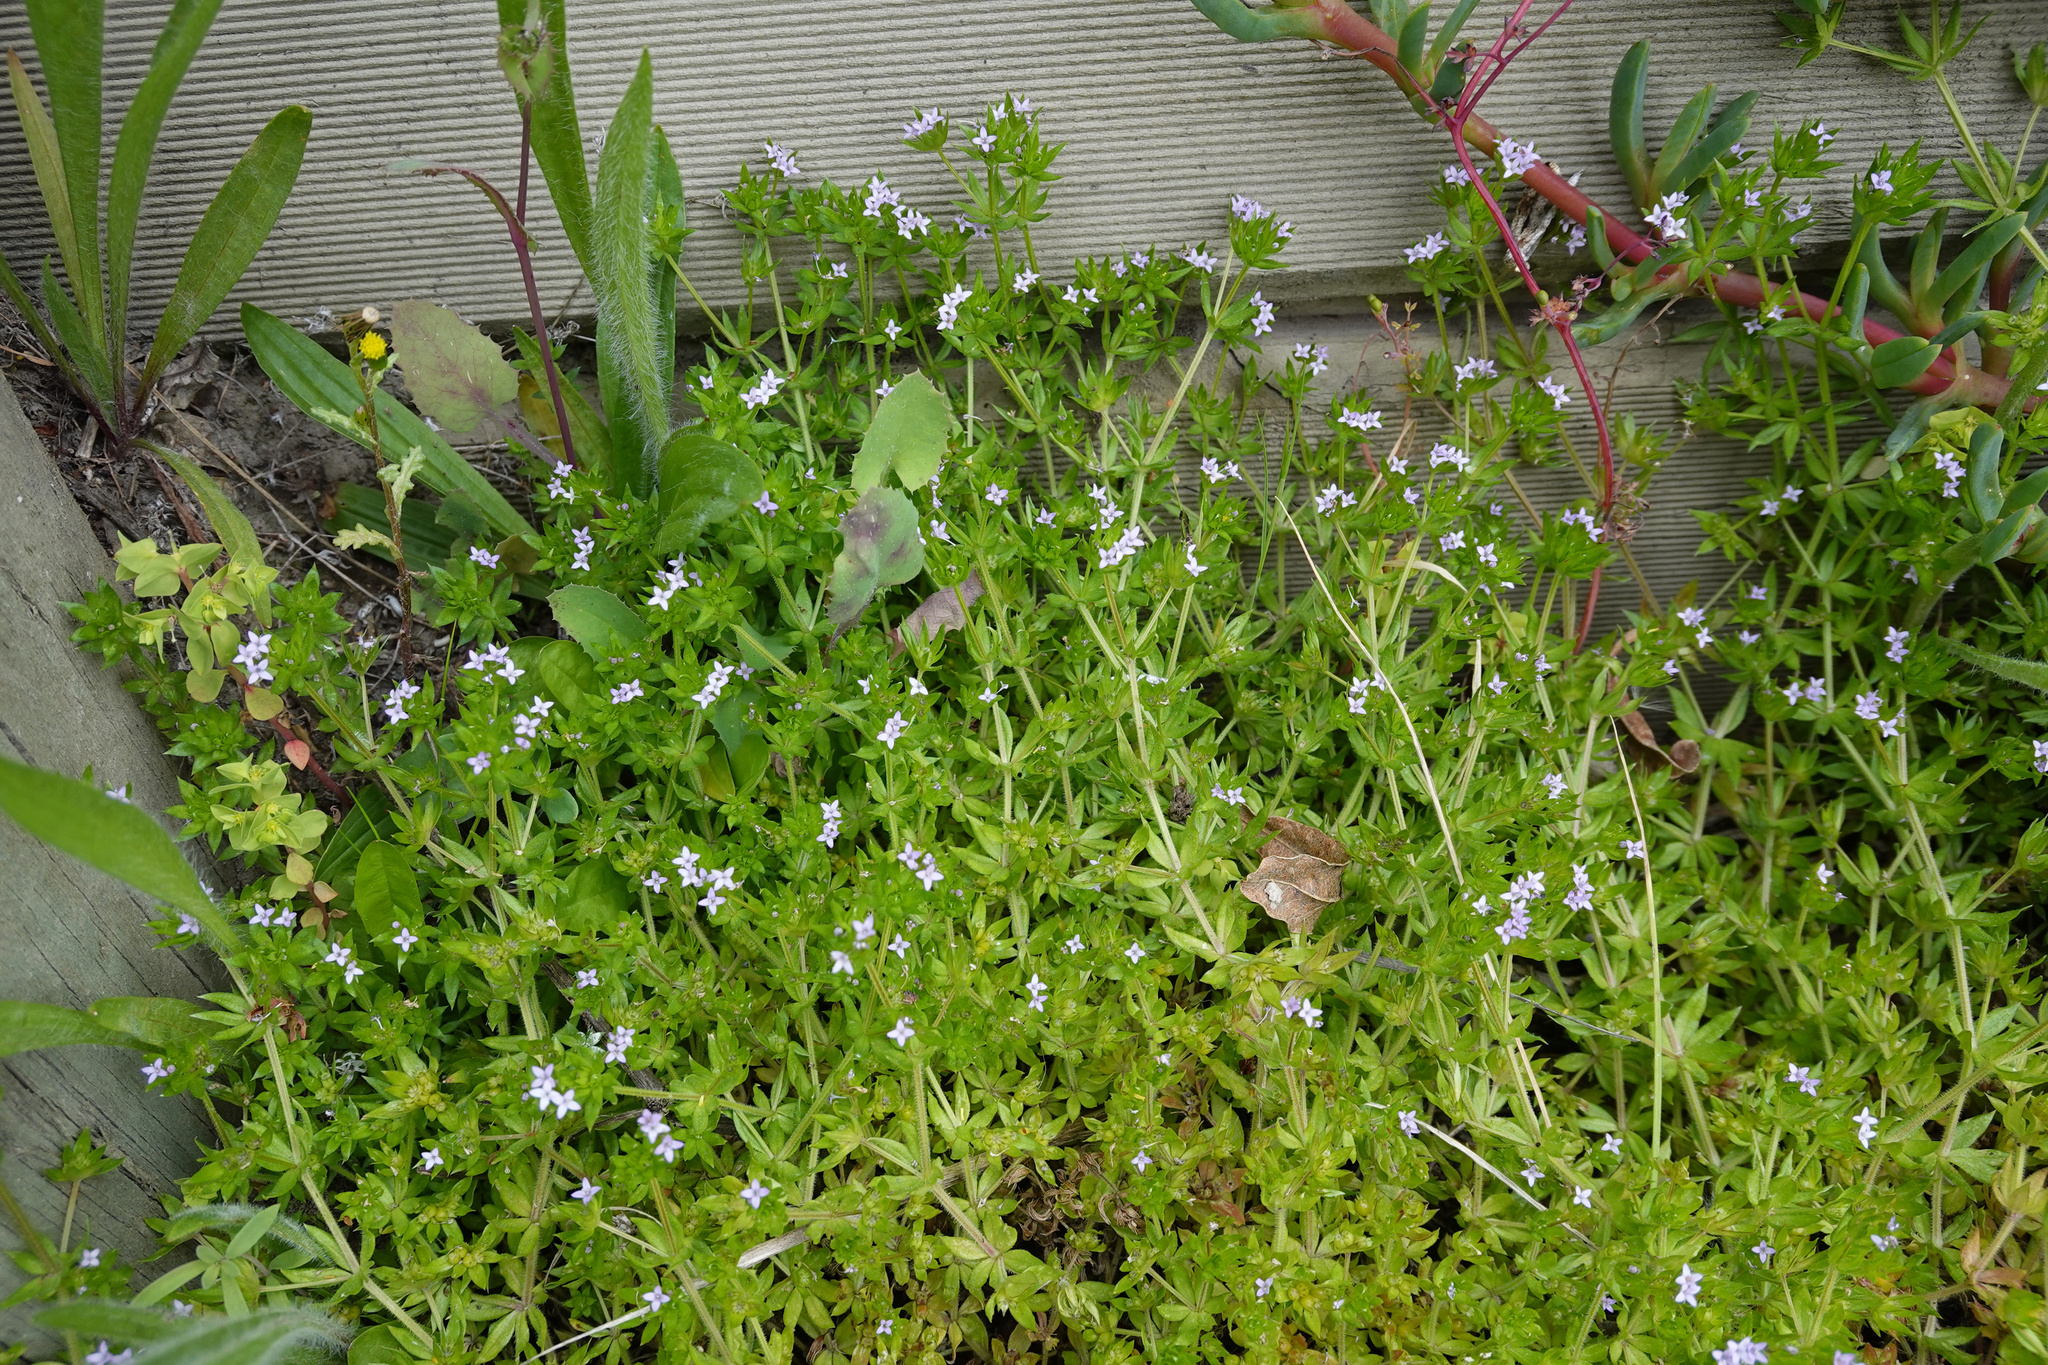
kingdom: Plantae
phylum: Tracheophyta
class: Magnoliopsida
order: Gentianales
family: Rubiaceae
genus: Sherardia
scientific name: Sherardia arvensis
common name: Field madder
